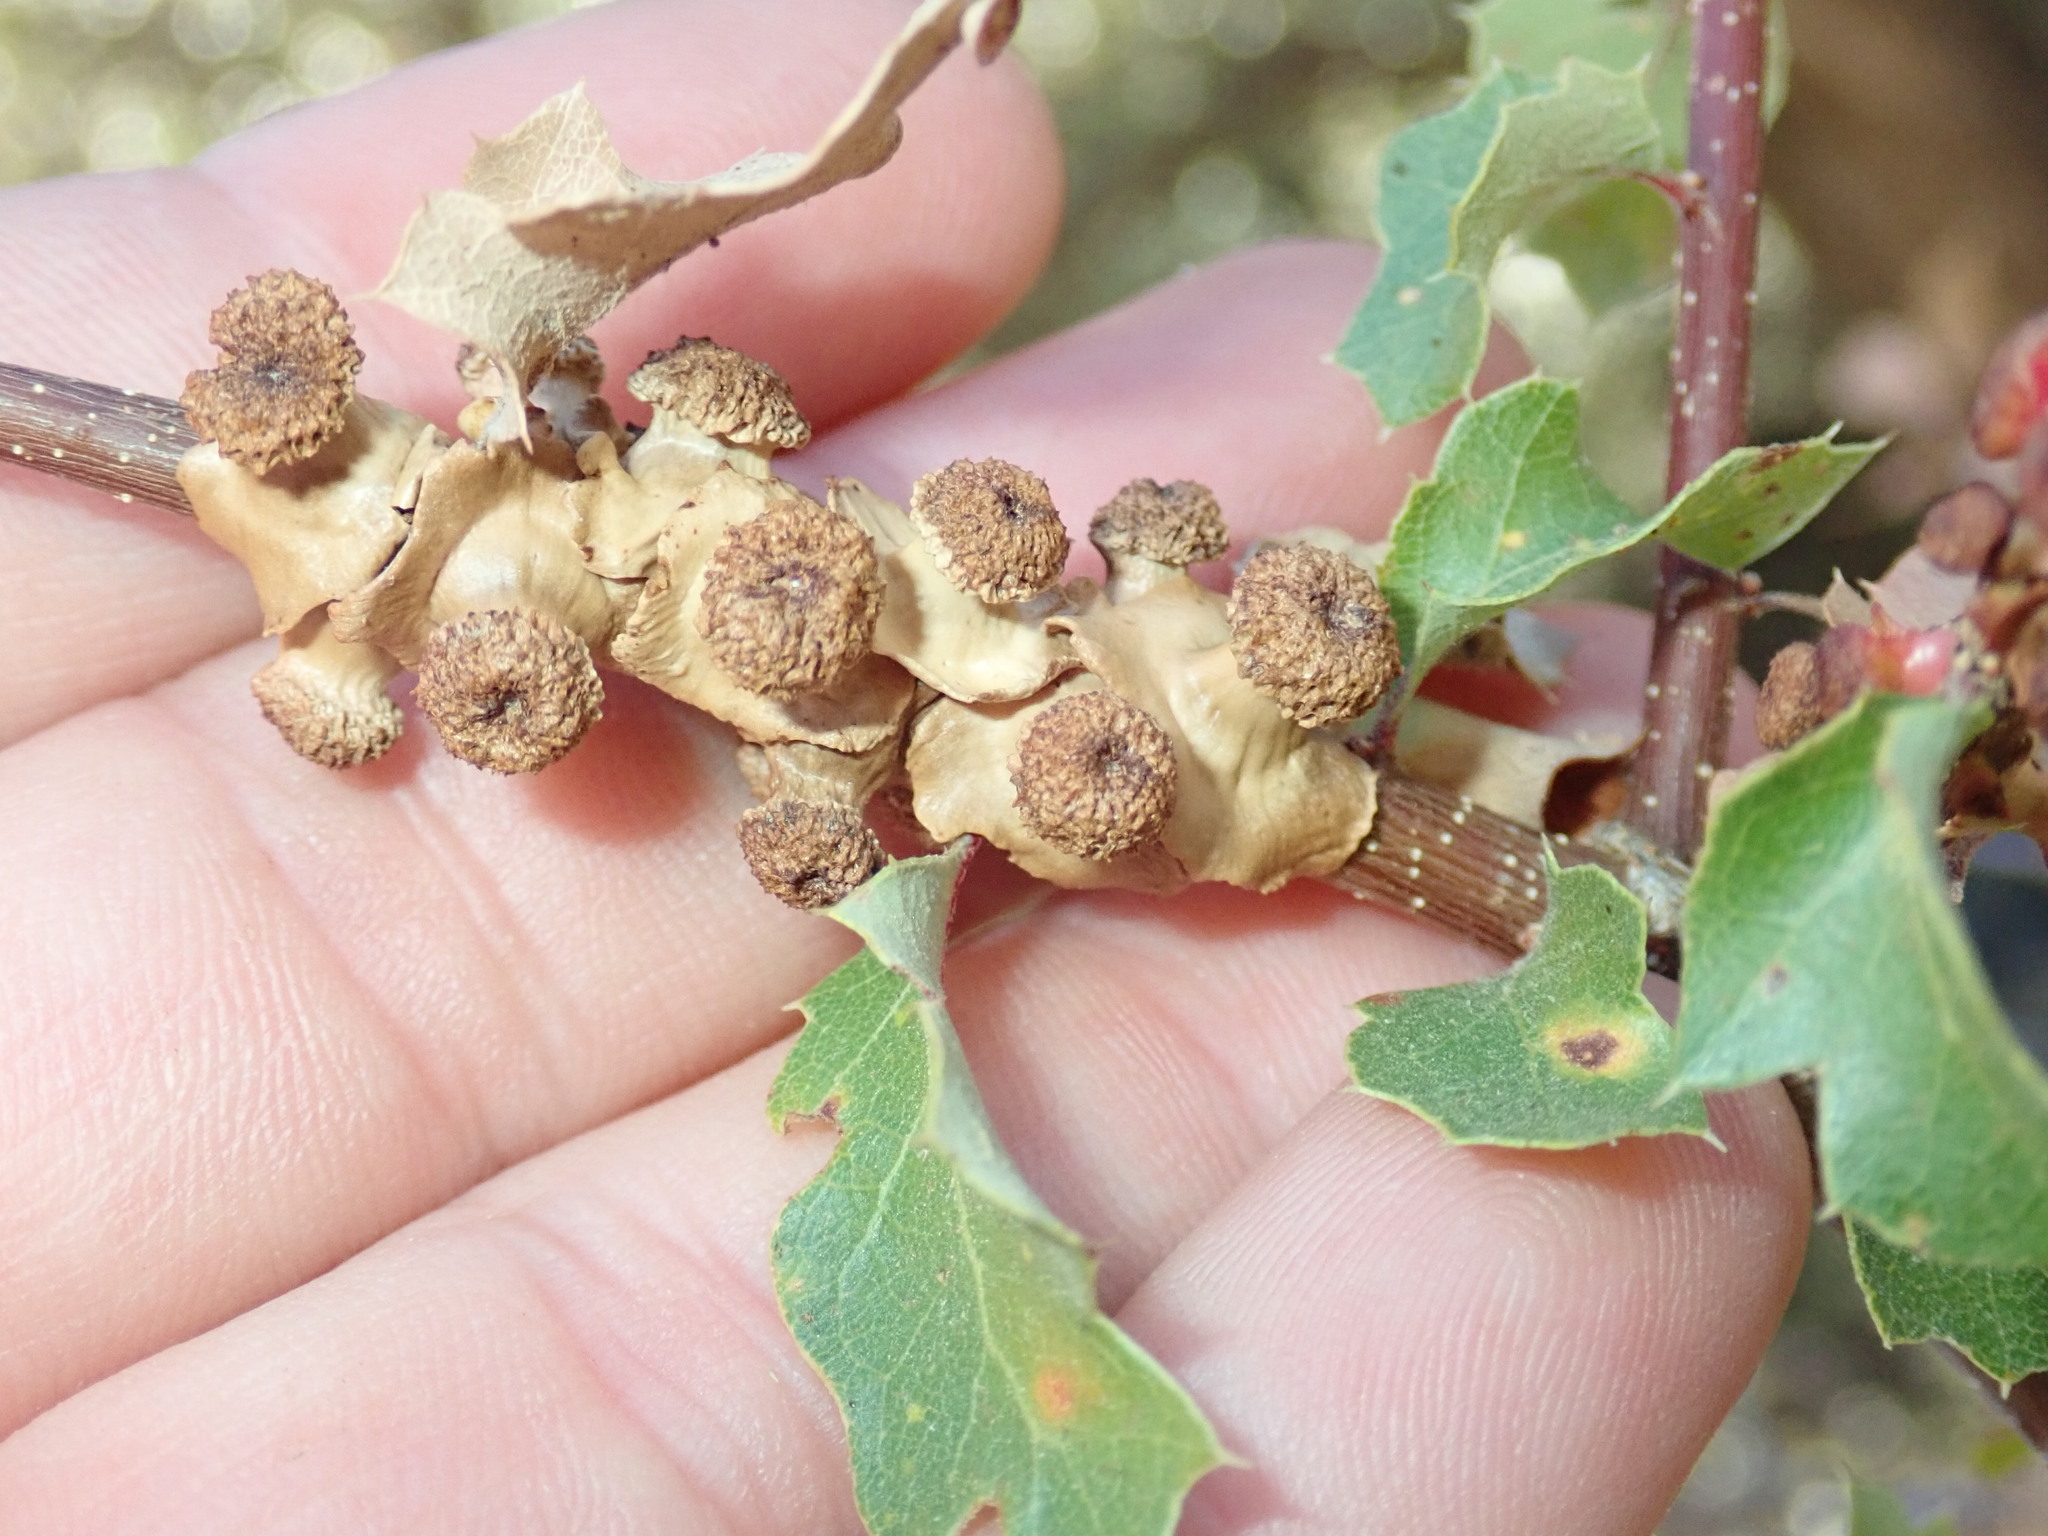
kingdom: Animalia
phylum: Arthropoda
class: Insecta
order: Hymenoptera
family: Cynipidae
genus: Disholcaspis
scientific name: Disholcaspis prehensa
